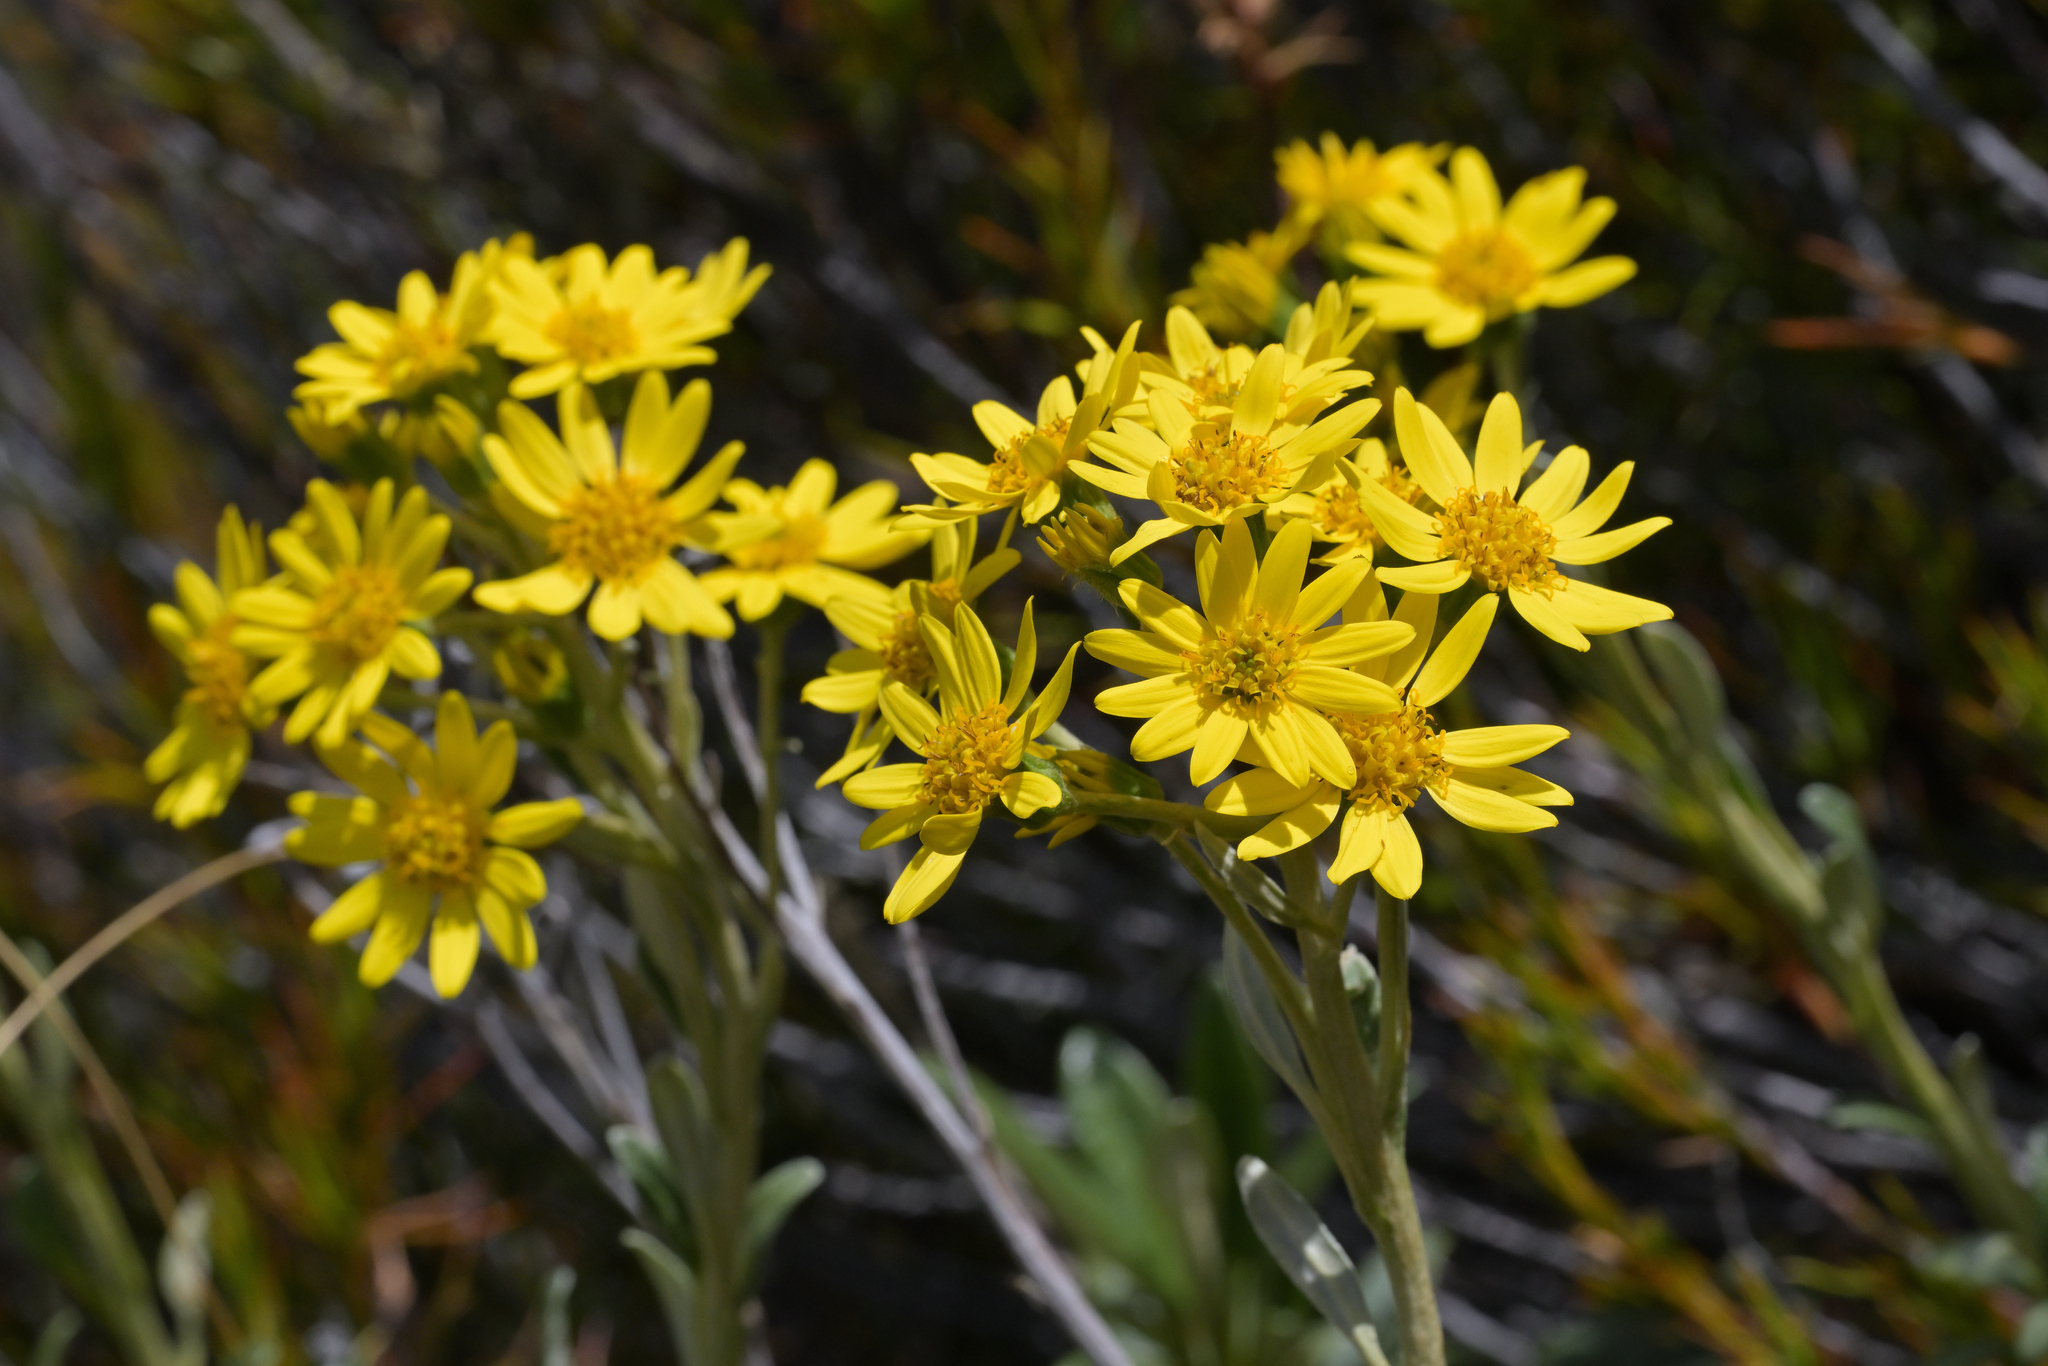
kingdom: Plantae
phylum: Tracheophyta
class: Magnoliopsida
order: Asterales
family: Asteraceae
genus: Brachyglottis
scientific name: Brachyglottis revoluta
